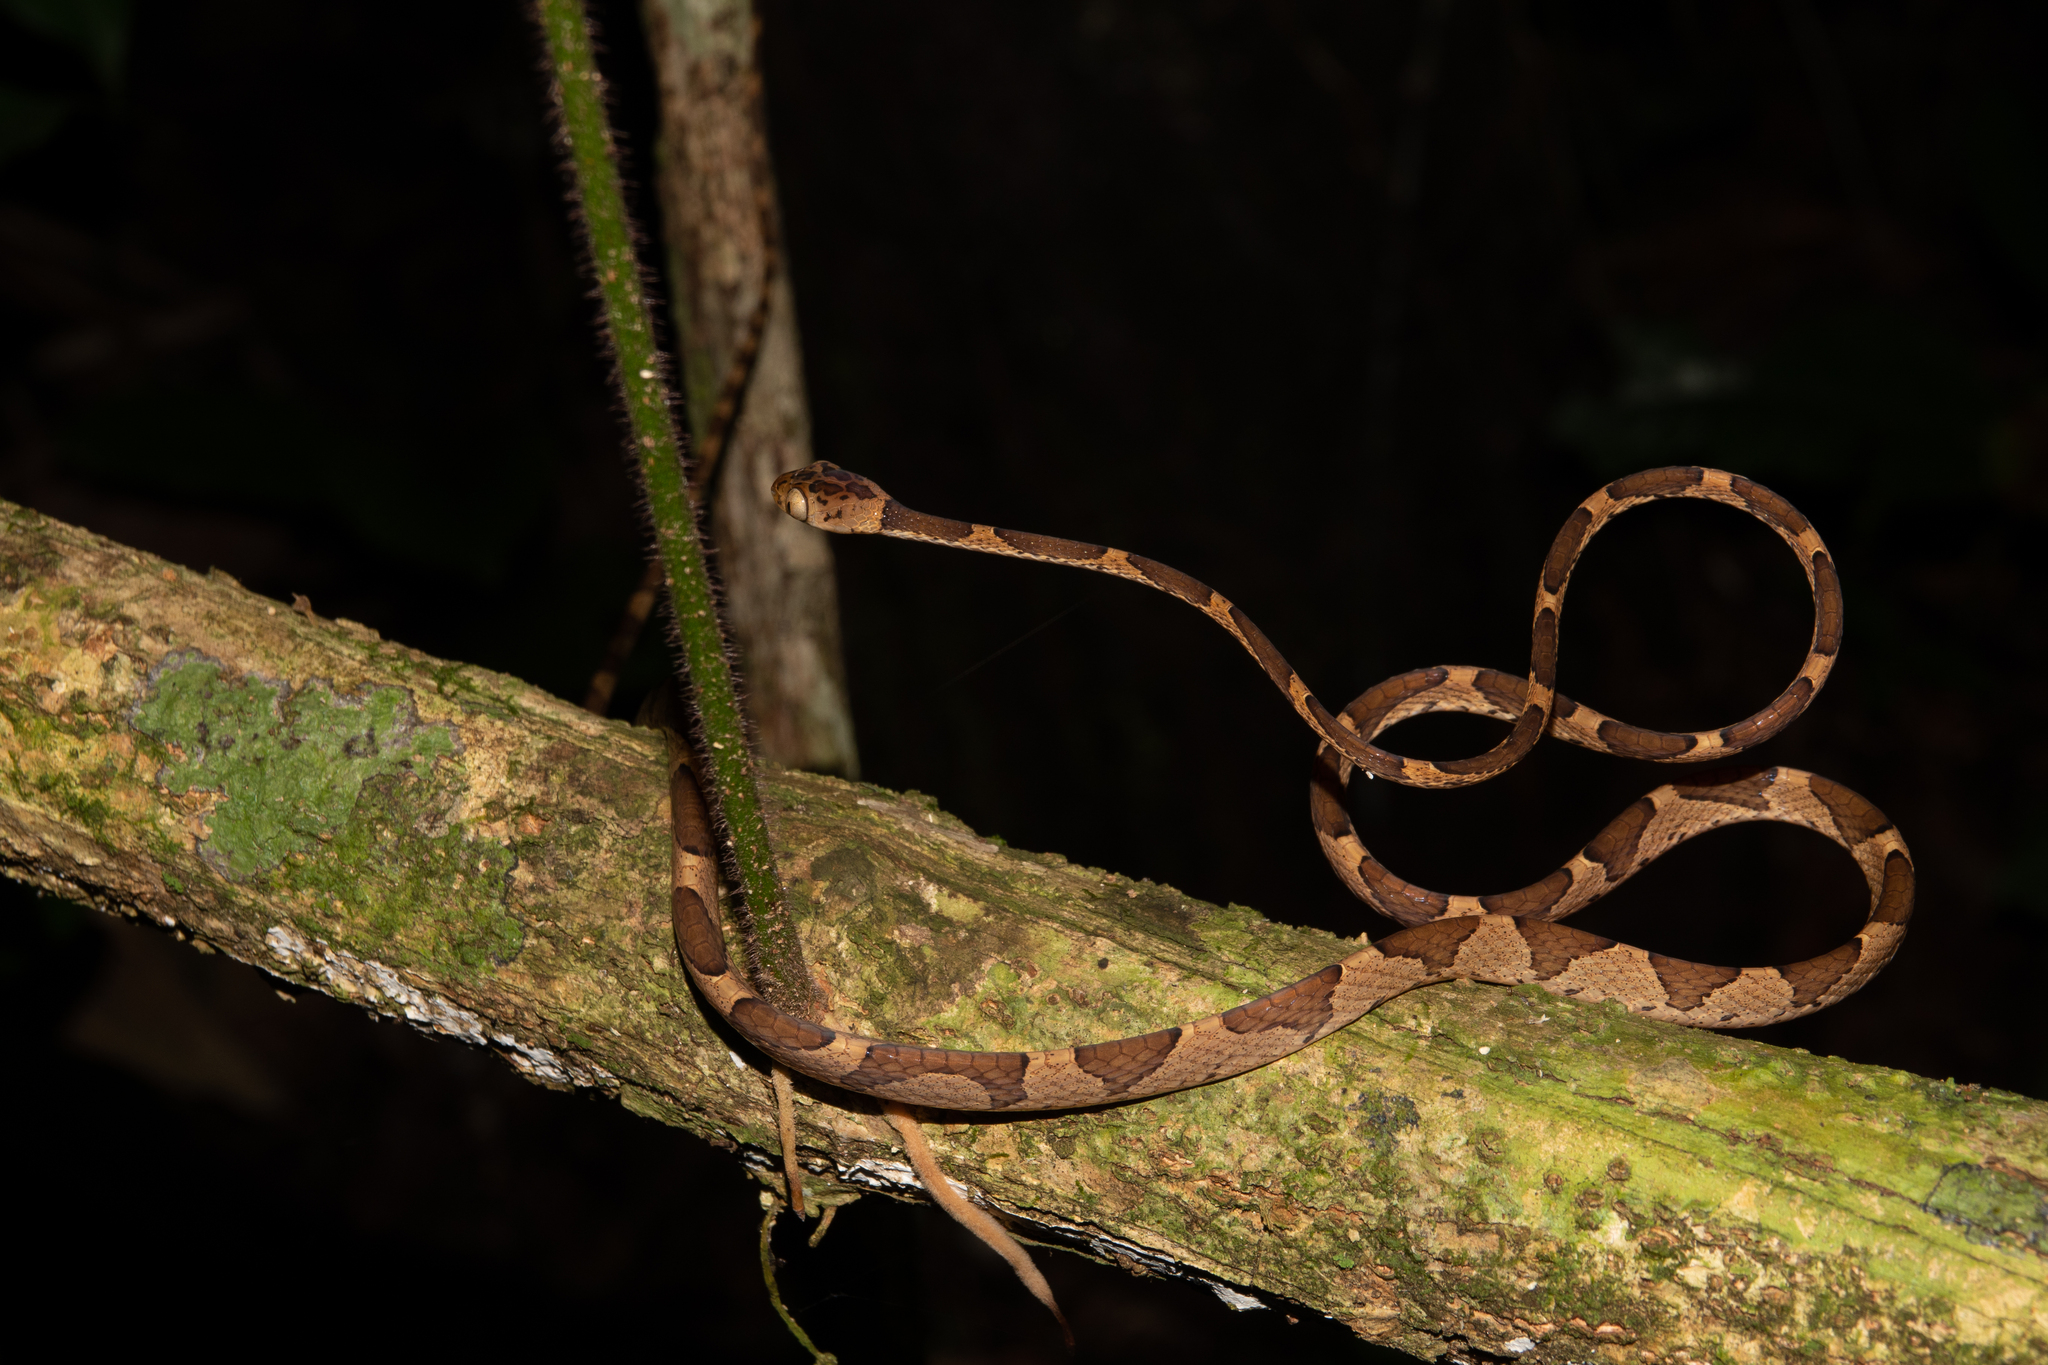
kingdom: Animalia
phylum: Chordata
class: Squamata
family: Colubridae
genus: Imantodes
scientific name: Imantodes cenchoa
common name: Blunthead tree snake
